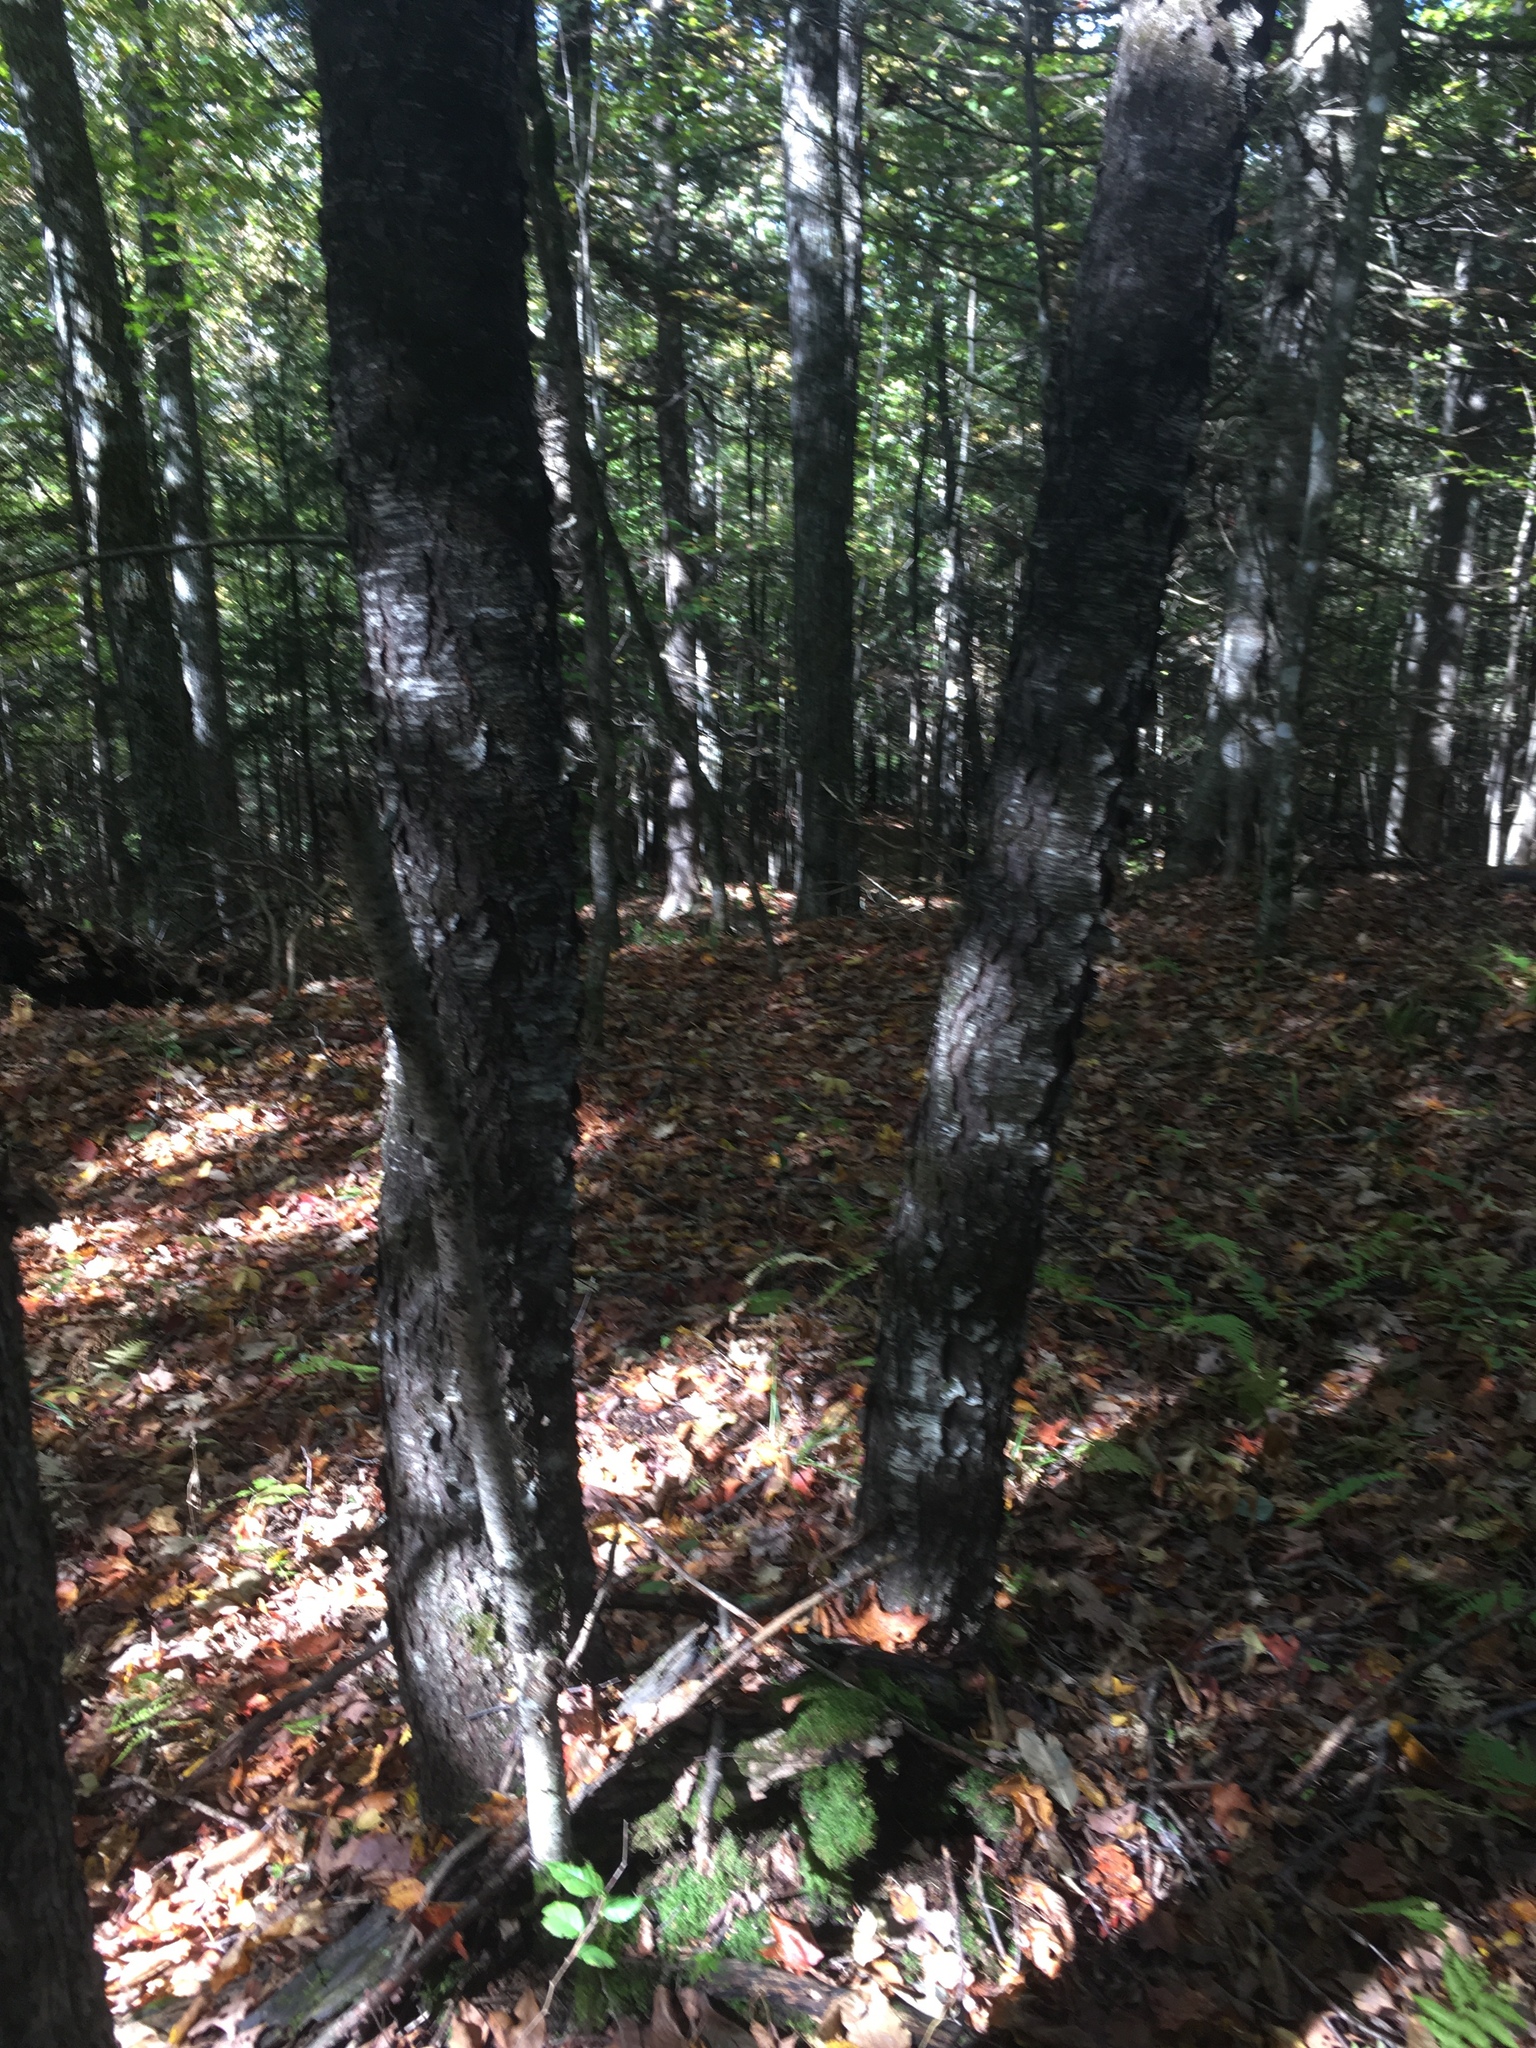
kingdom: Plantae
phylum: Tracheophyta
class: Magnoliopsida
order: Rosales
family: Rosaceae
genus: Prunus
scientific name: Prunus serotina
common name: Black cherry
